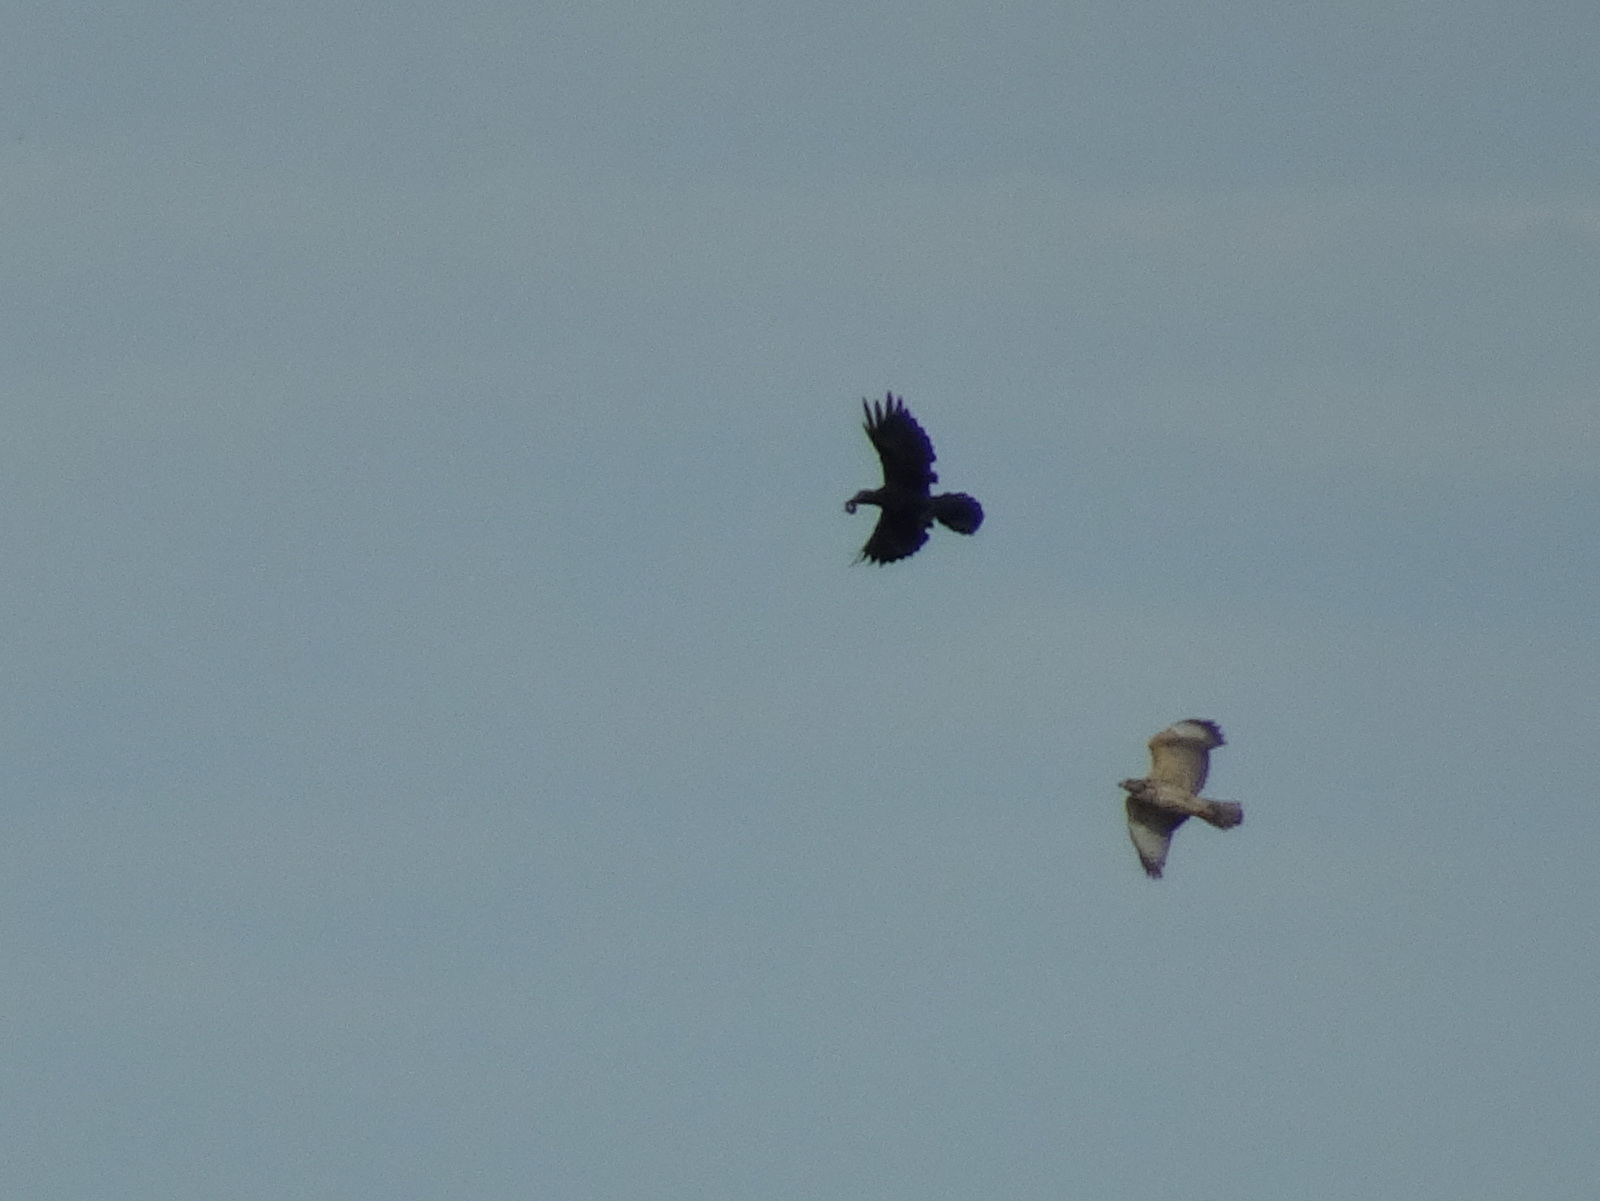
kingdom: Animalia
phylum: Chordata
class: Aves
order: Accipitriformes
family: Accipitridae
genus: Buteo
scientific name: Buteo lineatus
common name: Red-shouldered hawk
